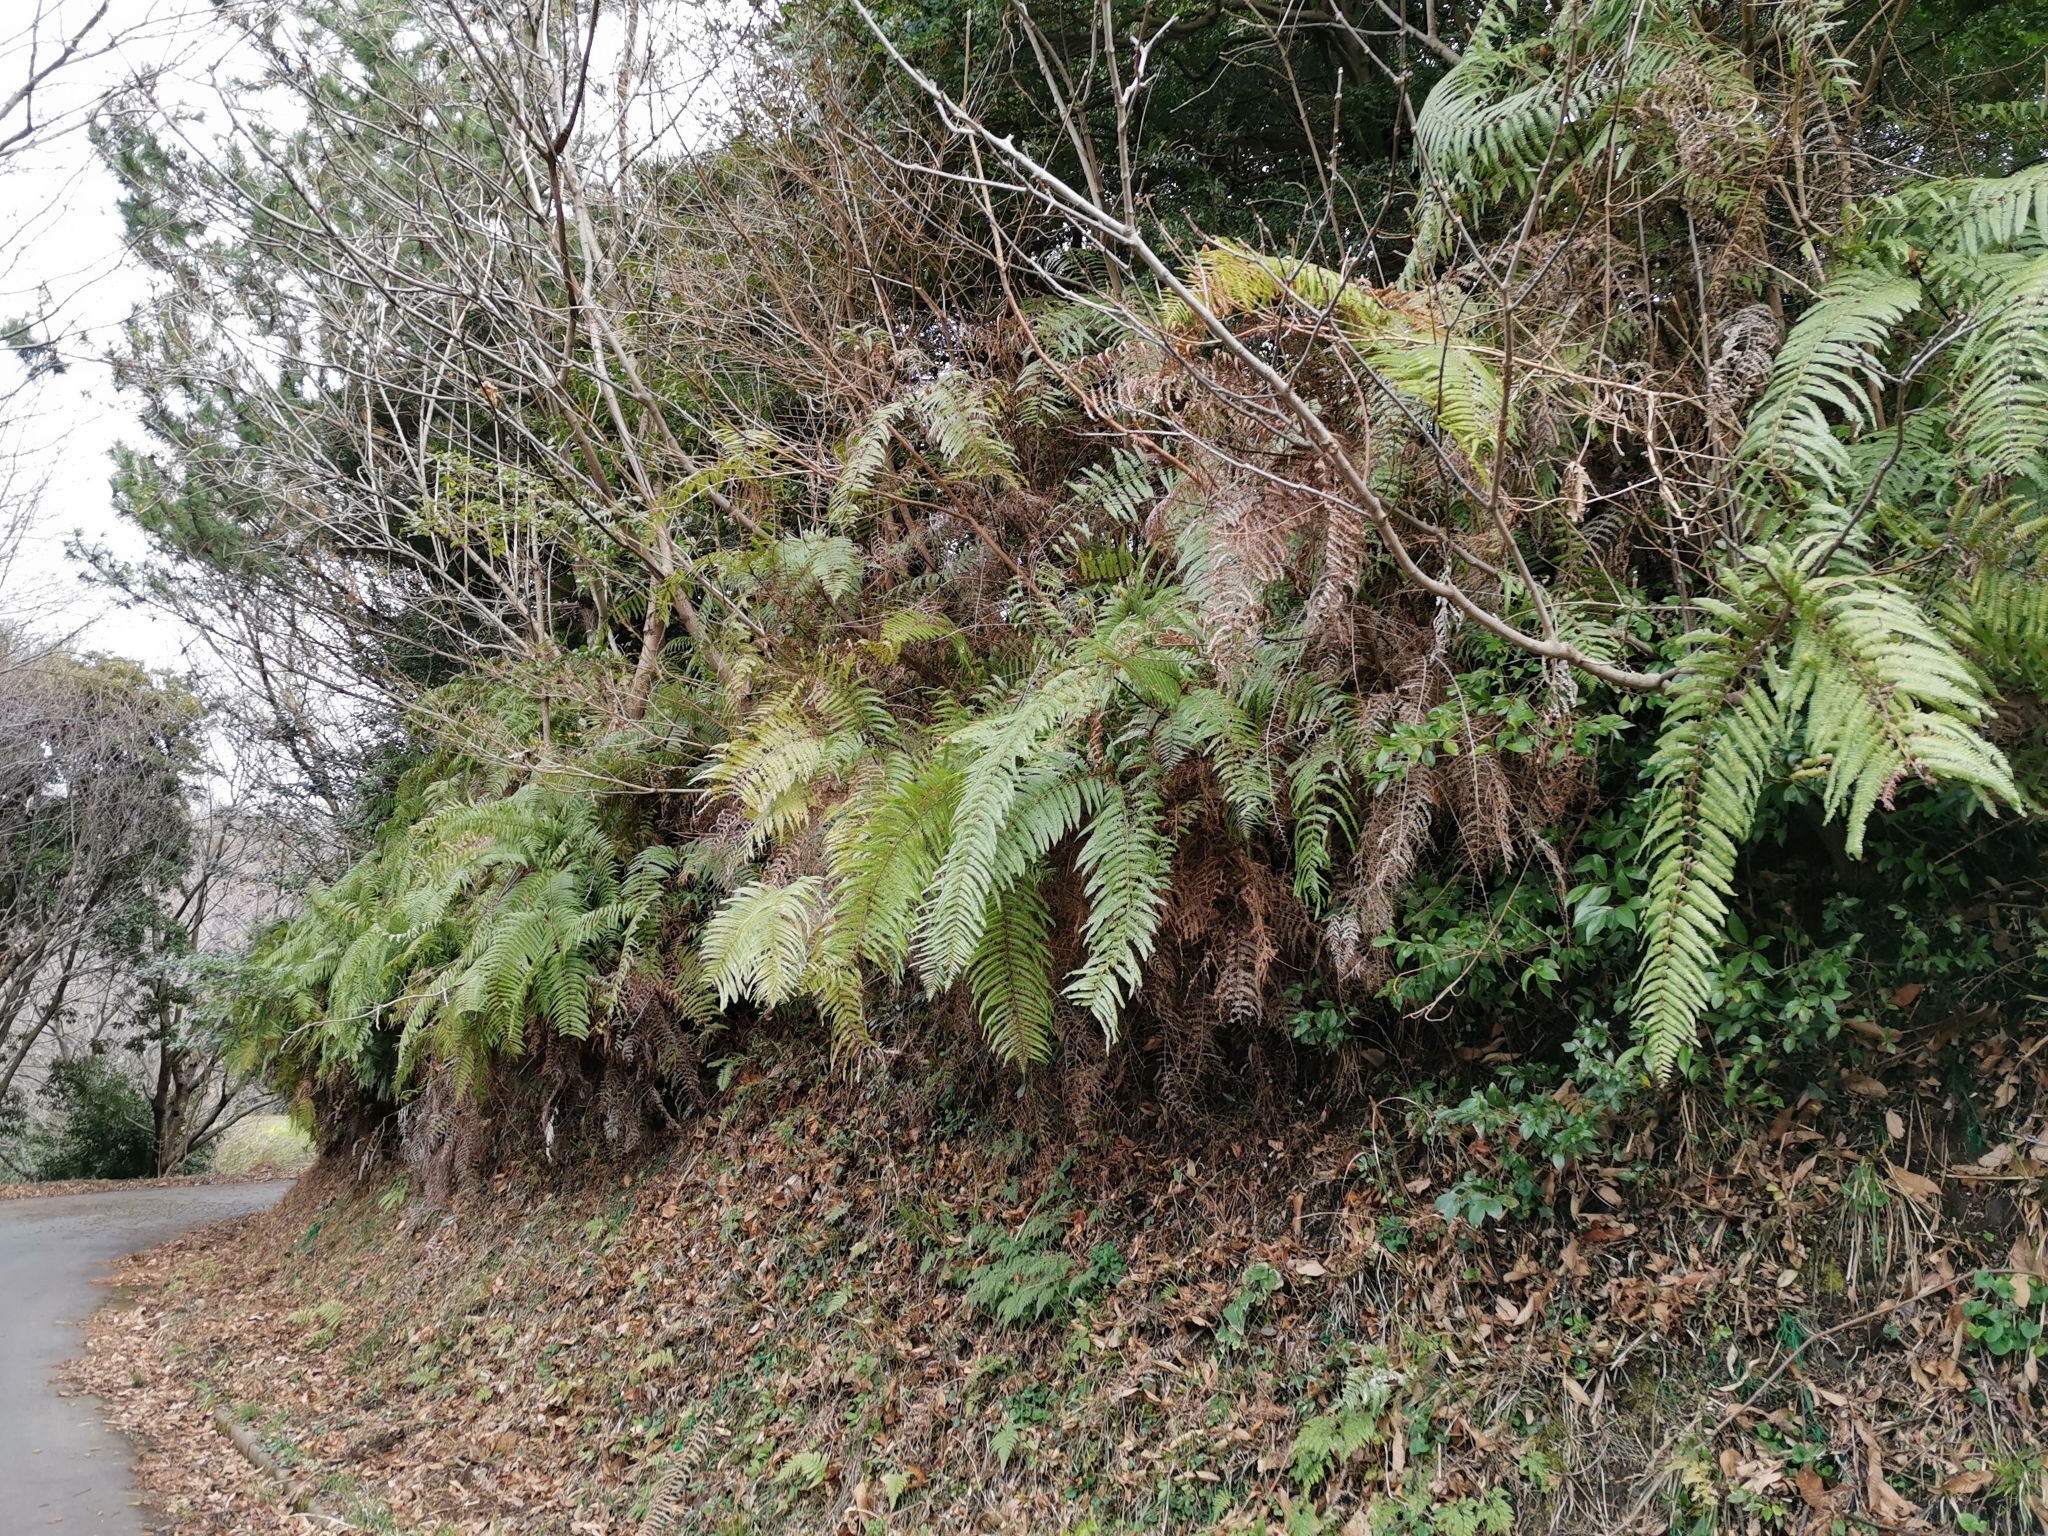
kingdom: Plantae
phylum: Tracheophyta
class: Polypodiopsida
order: Gleicheniales
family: Gleicheniaceae
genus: Diplopterygium
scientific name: Diplopterygium glaucum
